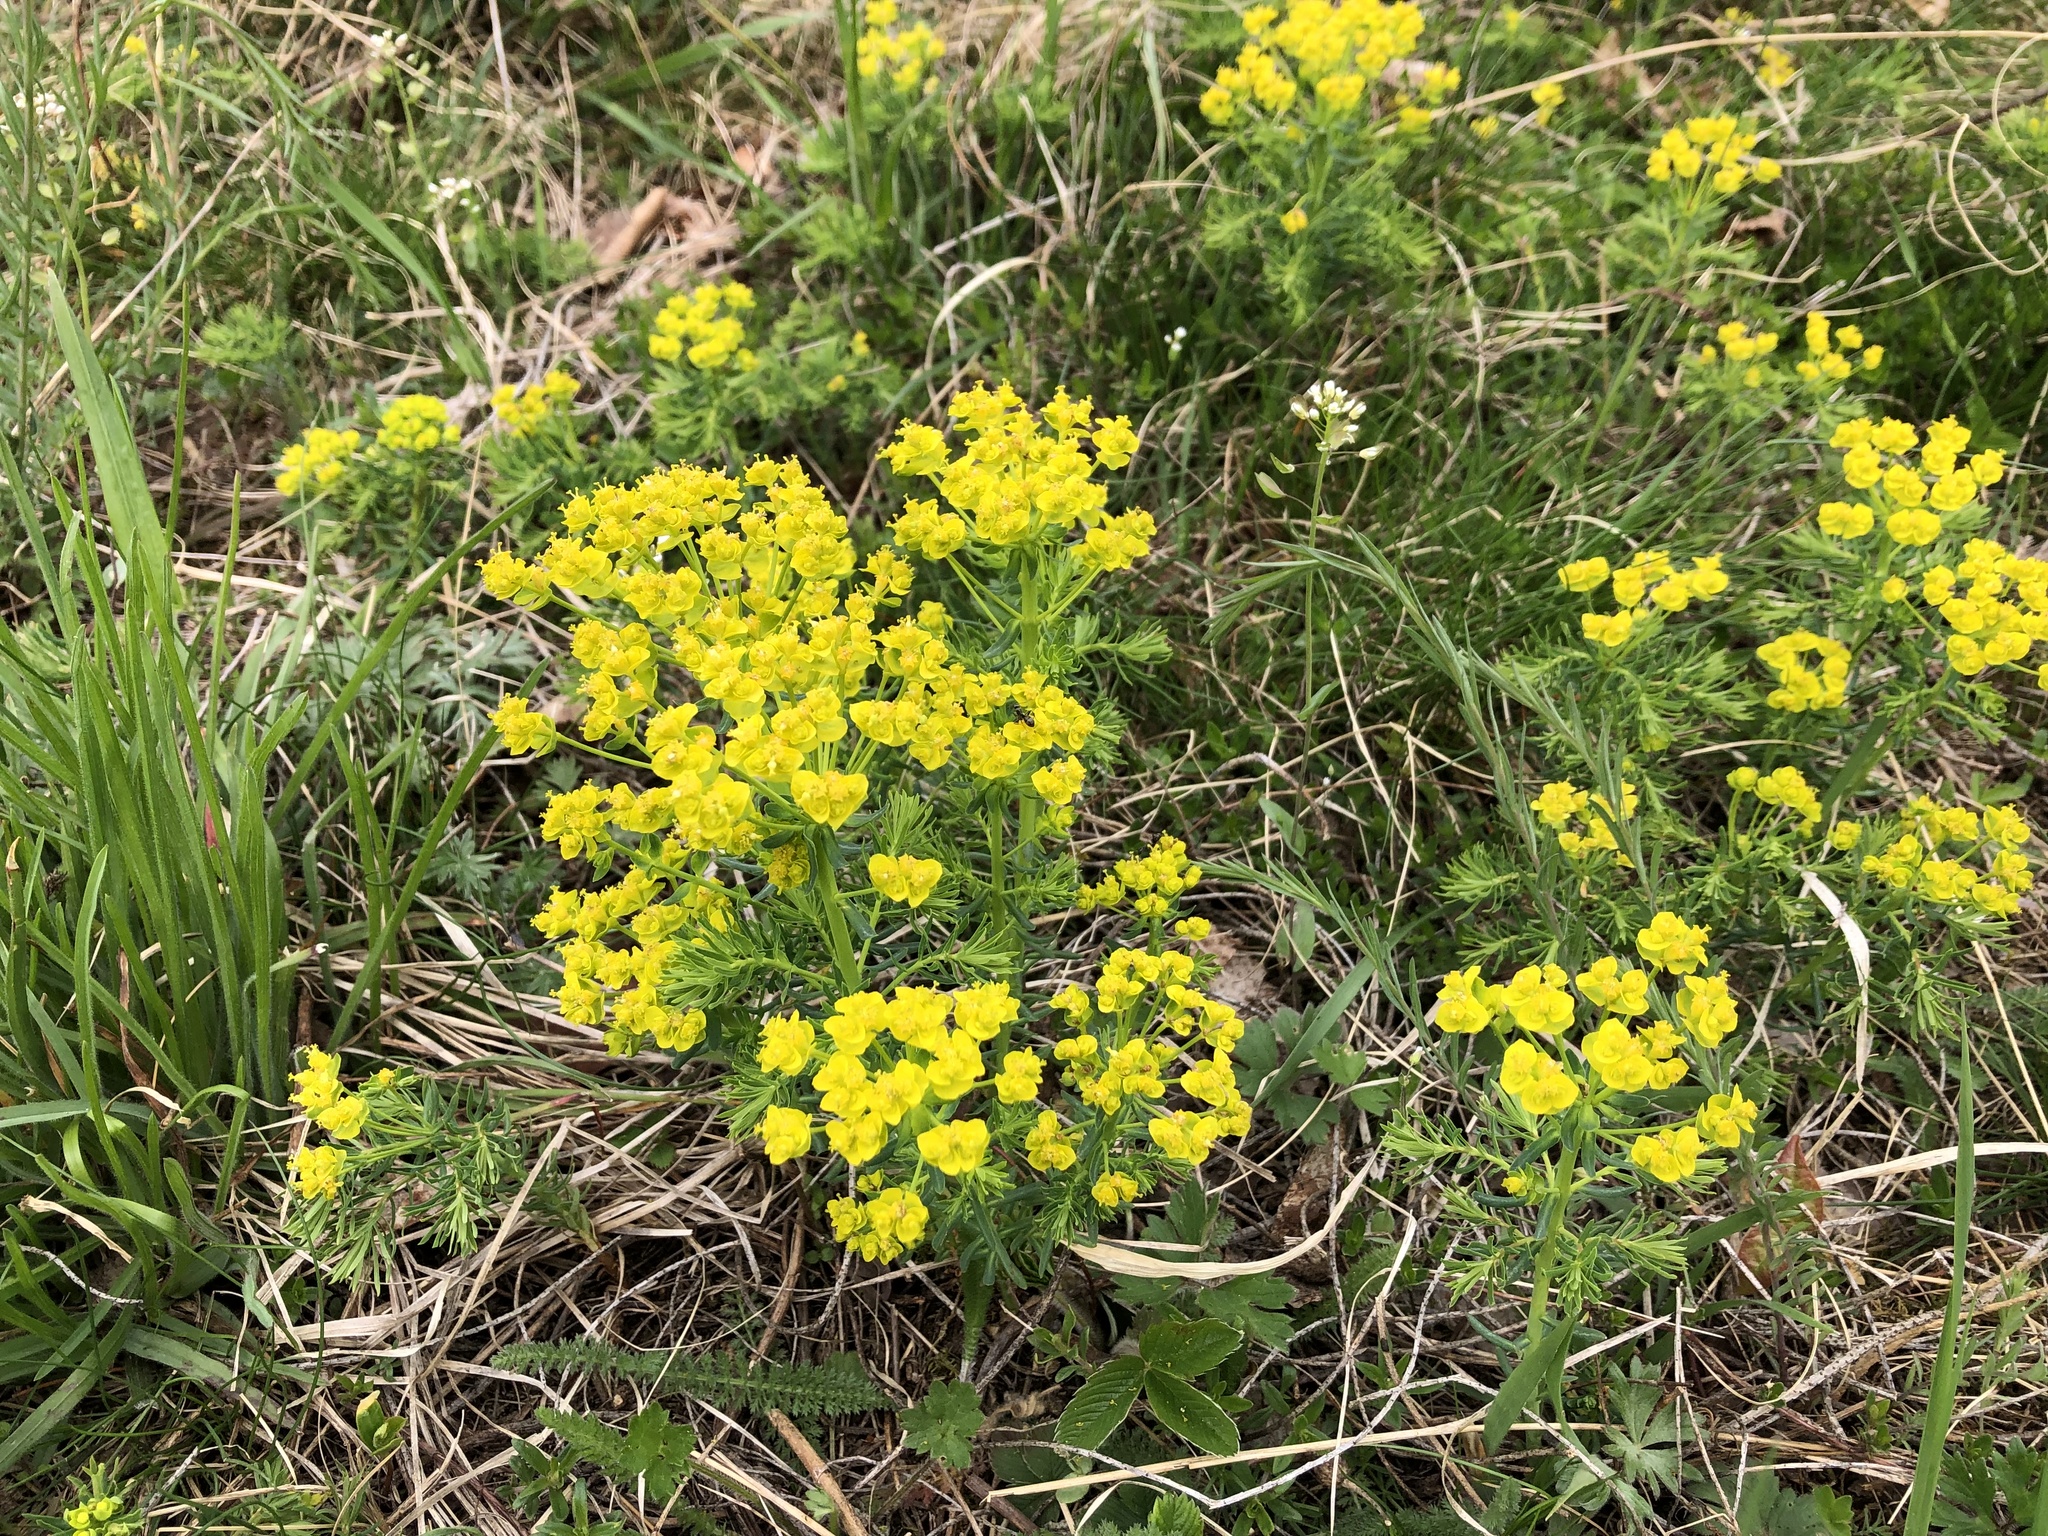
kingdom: Plantae
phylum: Tracheophyta
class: Magnoliopsida
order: Malpighiales
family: Euphorbiaceae
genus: Euphorbia
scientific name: Euphorbia cyparissias
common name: Cypress spurge
